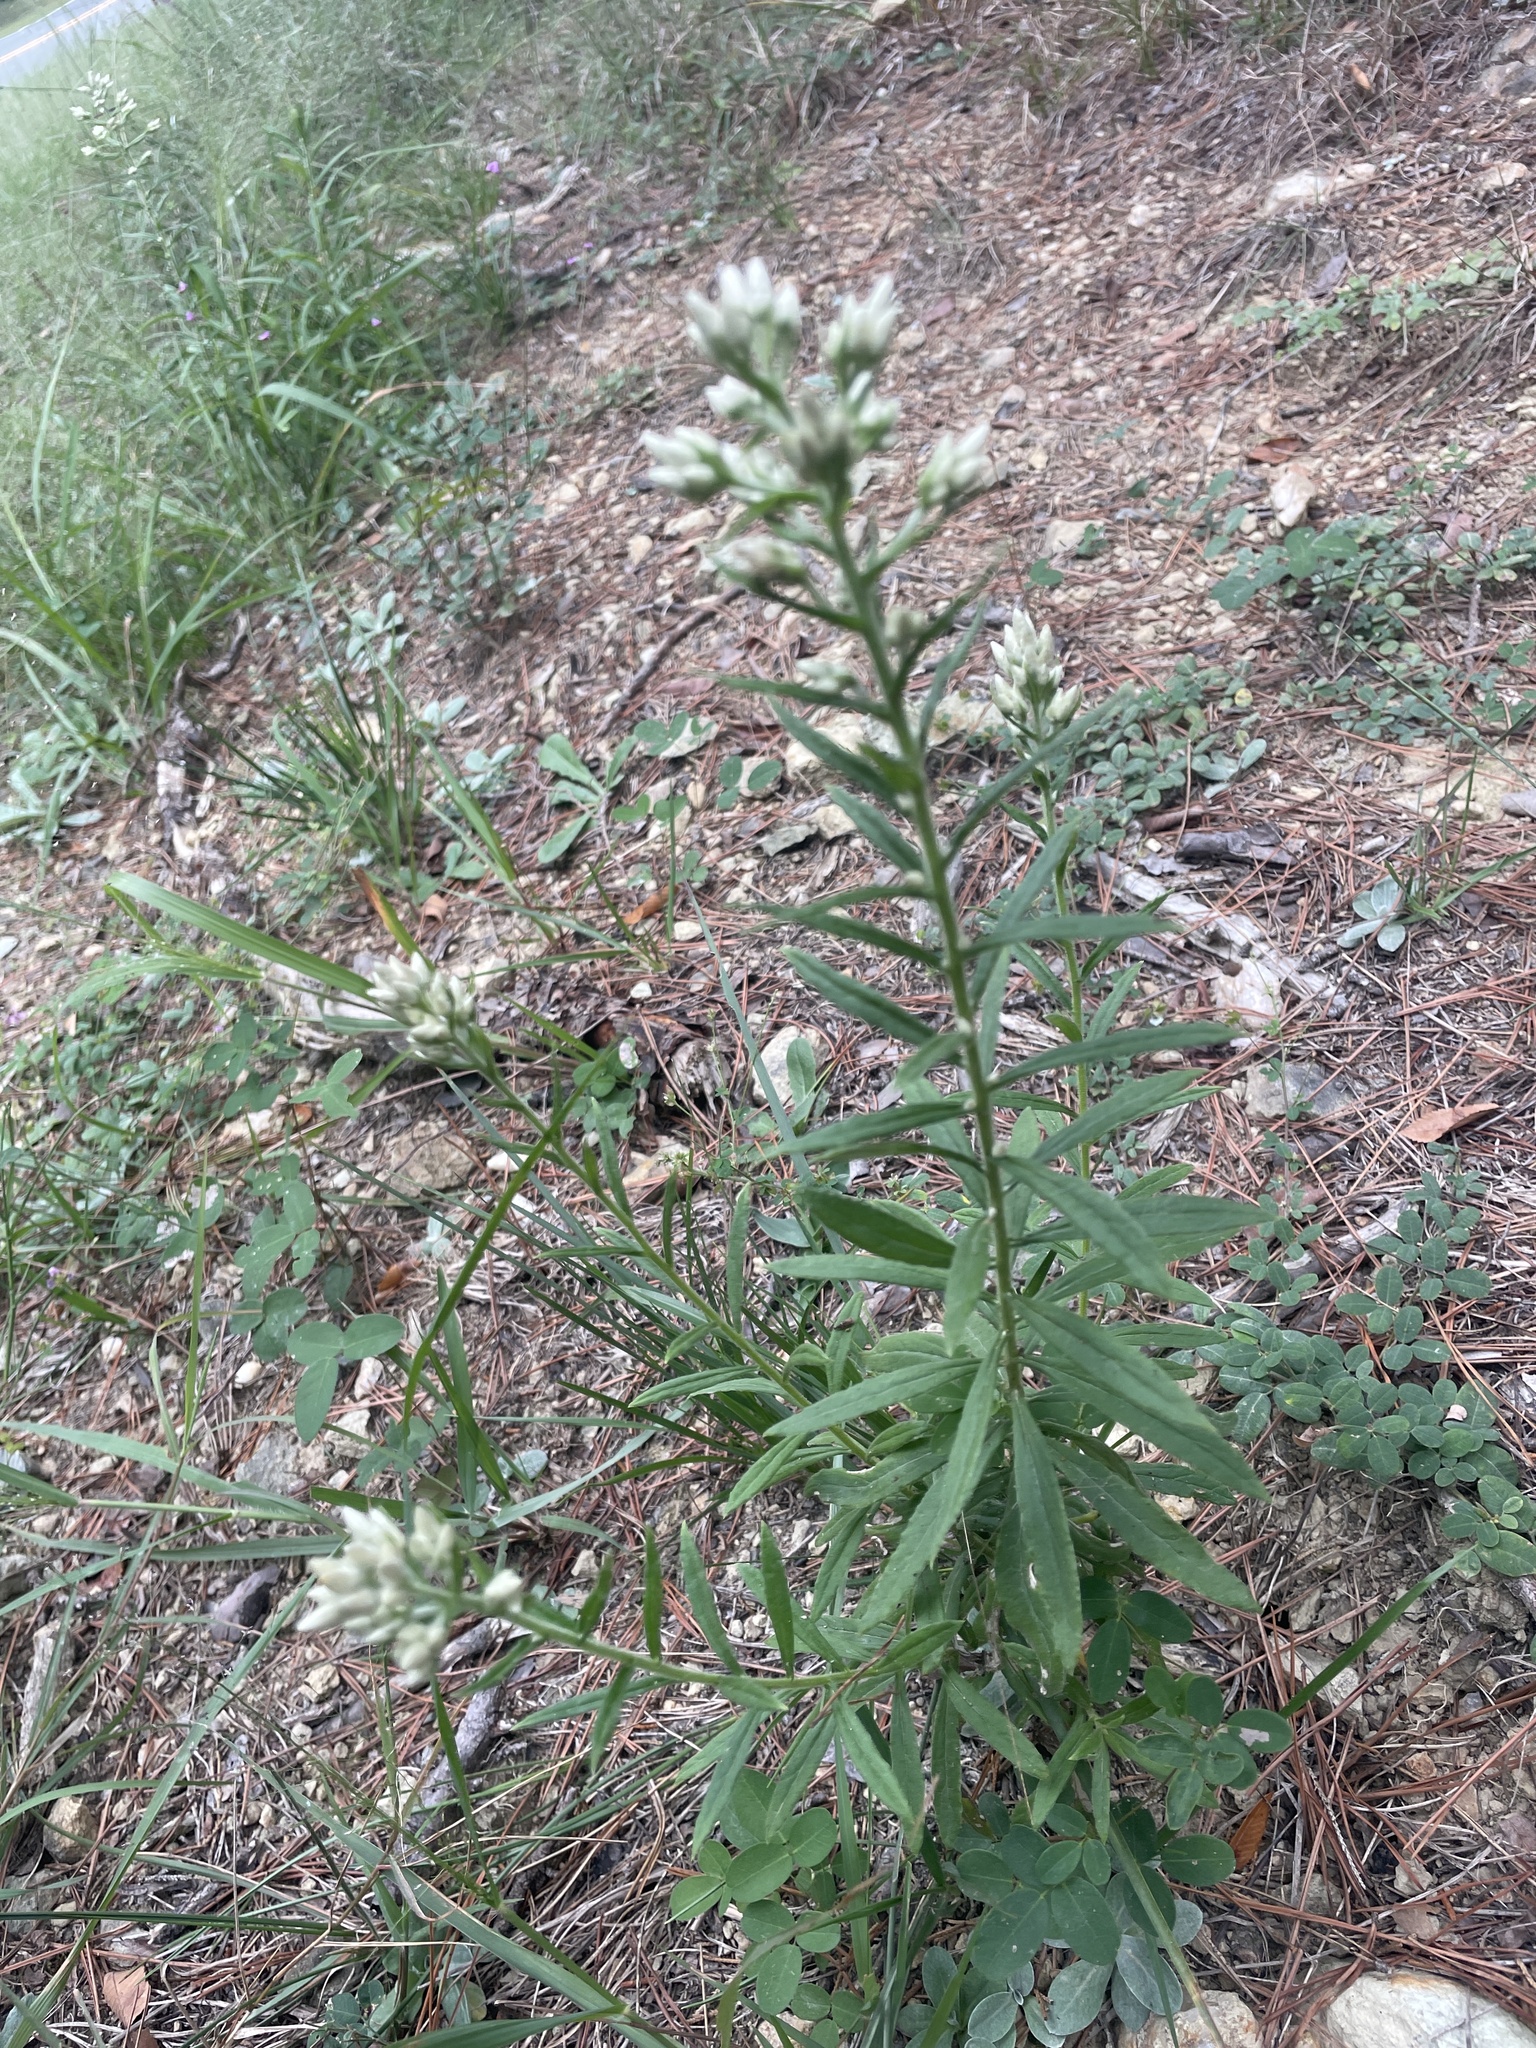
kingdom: Plantae
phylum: Tracheophyta
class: Magnoliopsida
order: Asterales
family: Asteraceae
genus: Pseudognaphalium
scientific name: Pseudognaphalium helleri
